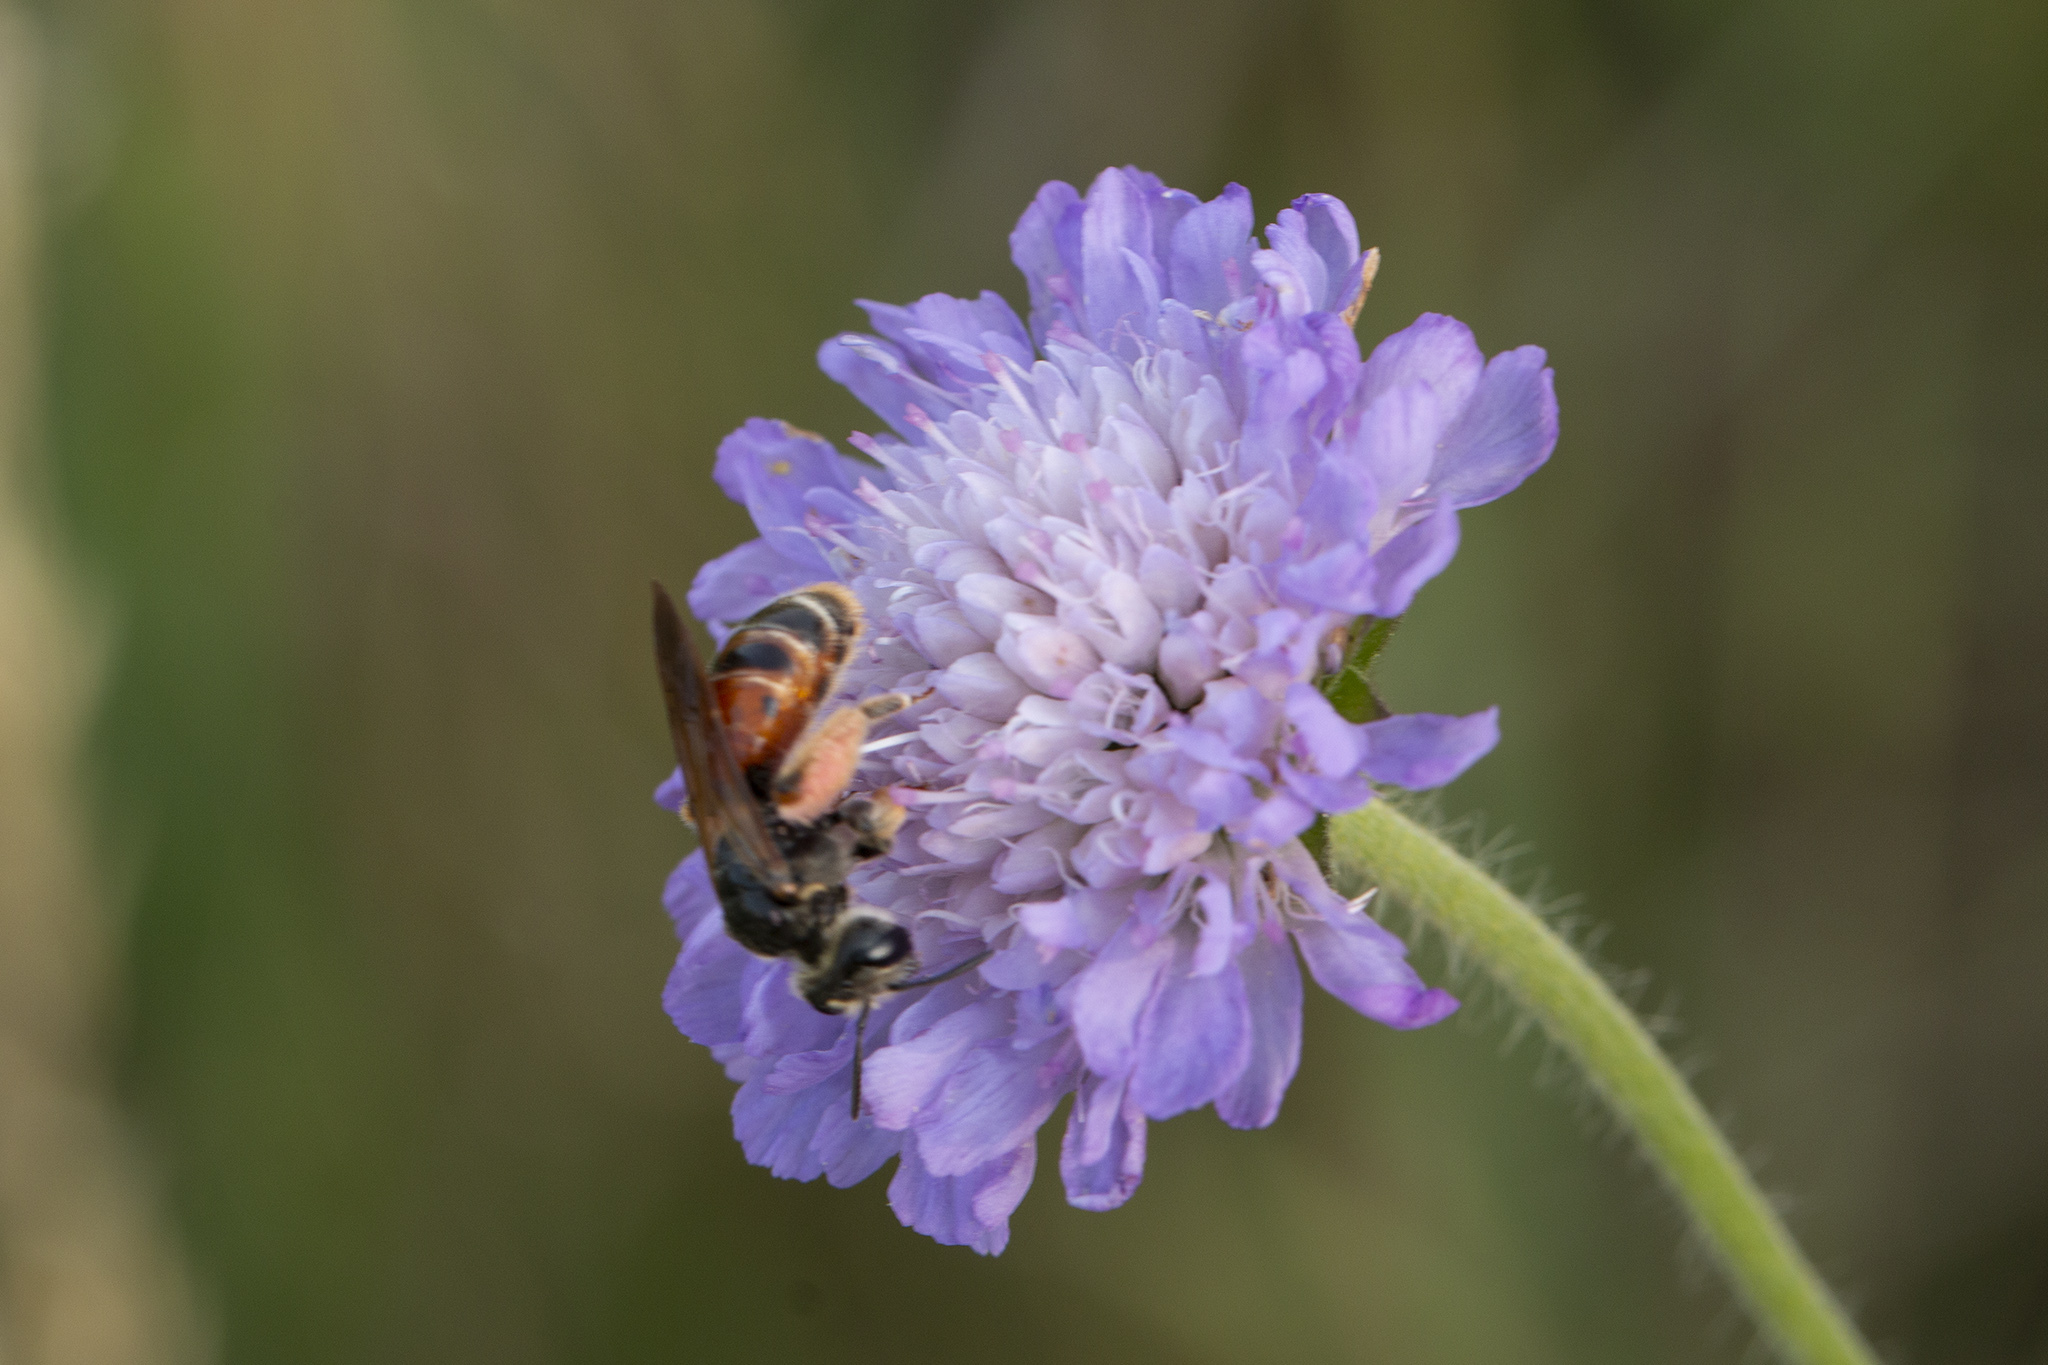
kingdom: Animalia
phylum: Arthropoda
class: Insecta
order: Hymenoptera
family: Andrenidae
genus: Andrena
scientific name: Andrena hattorfiana
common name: Large scabious mining bee
